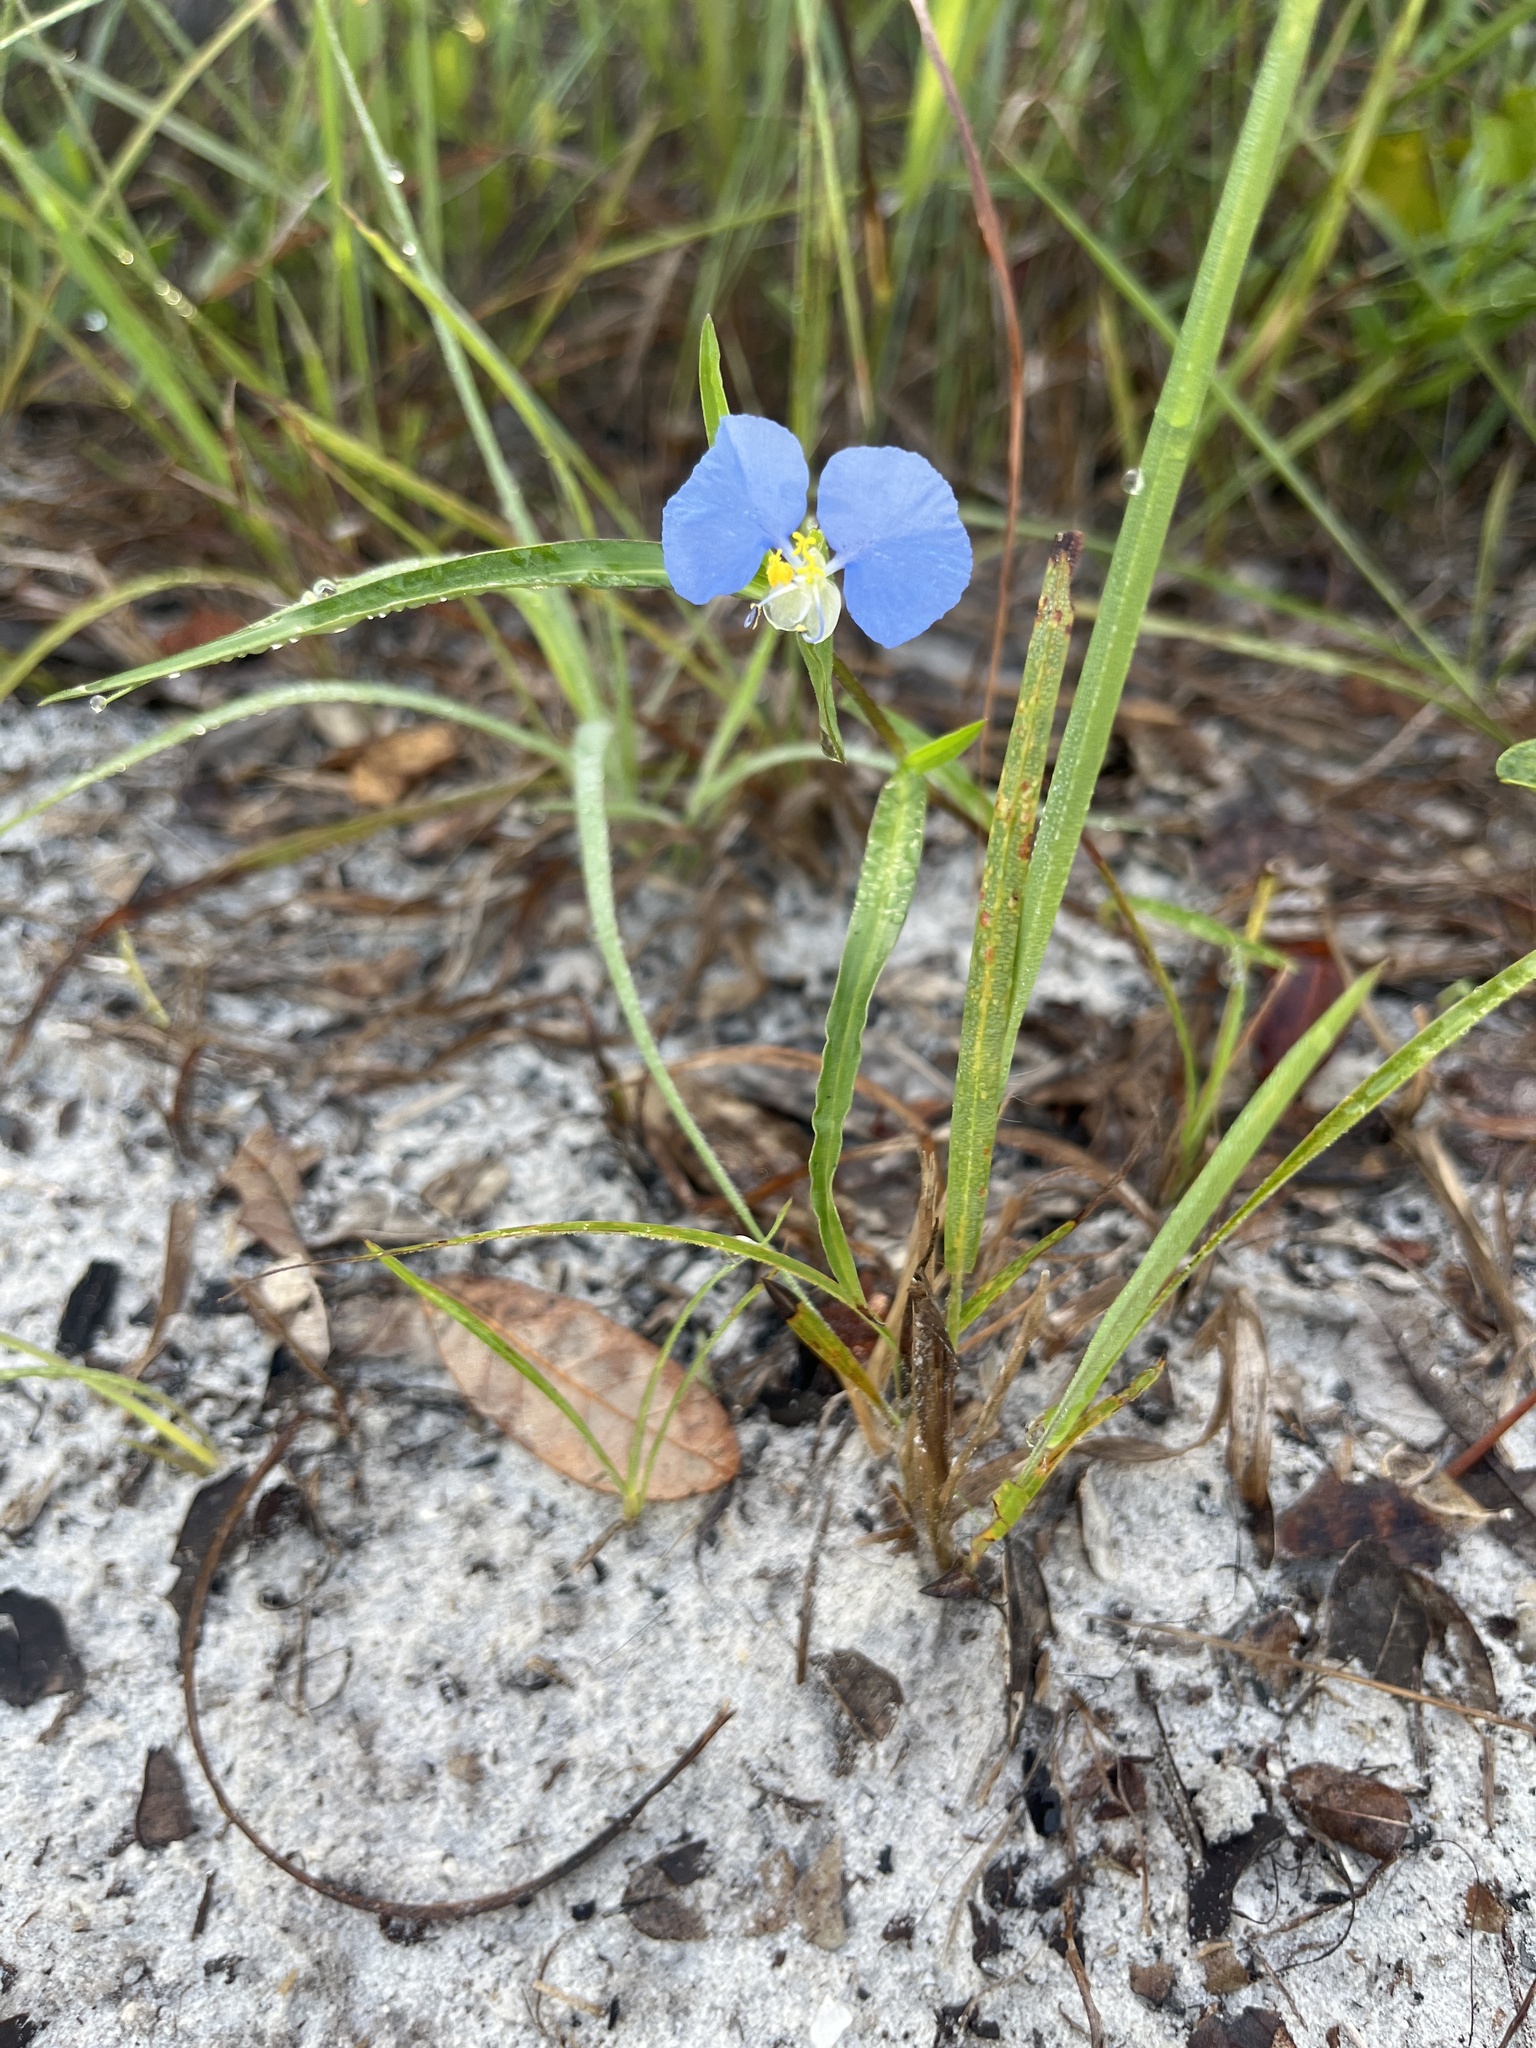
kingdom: Plantae
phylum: Tracheophyta
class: Liliopsida
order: Commelinales
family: Commelinaceae
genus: Commelina
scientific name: Commelina erecta
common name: Blousel blommetjie
